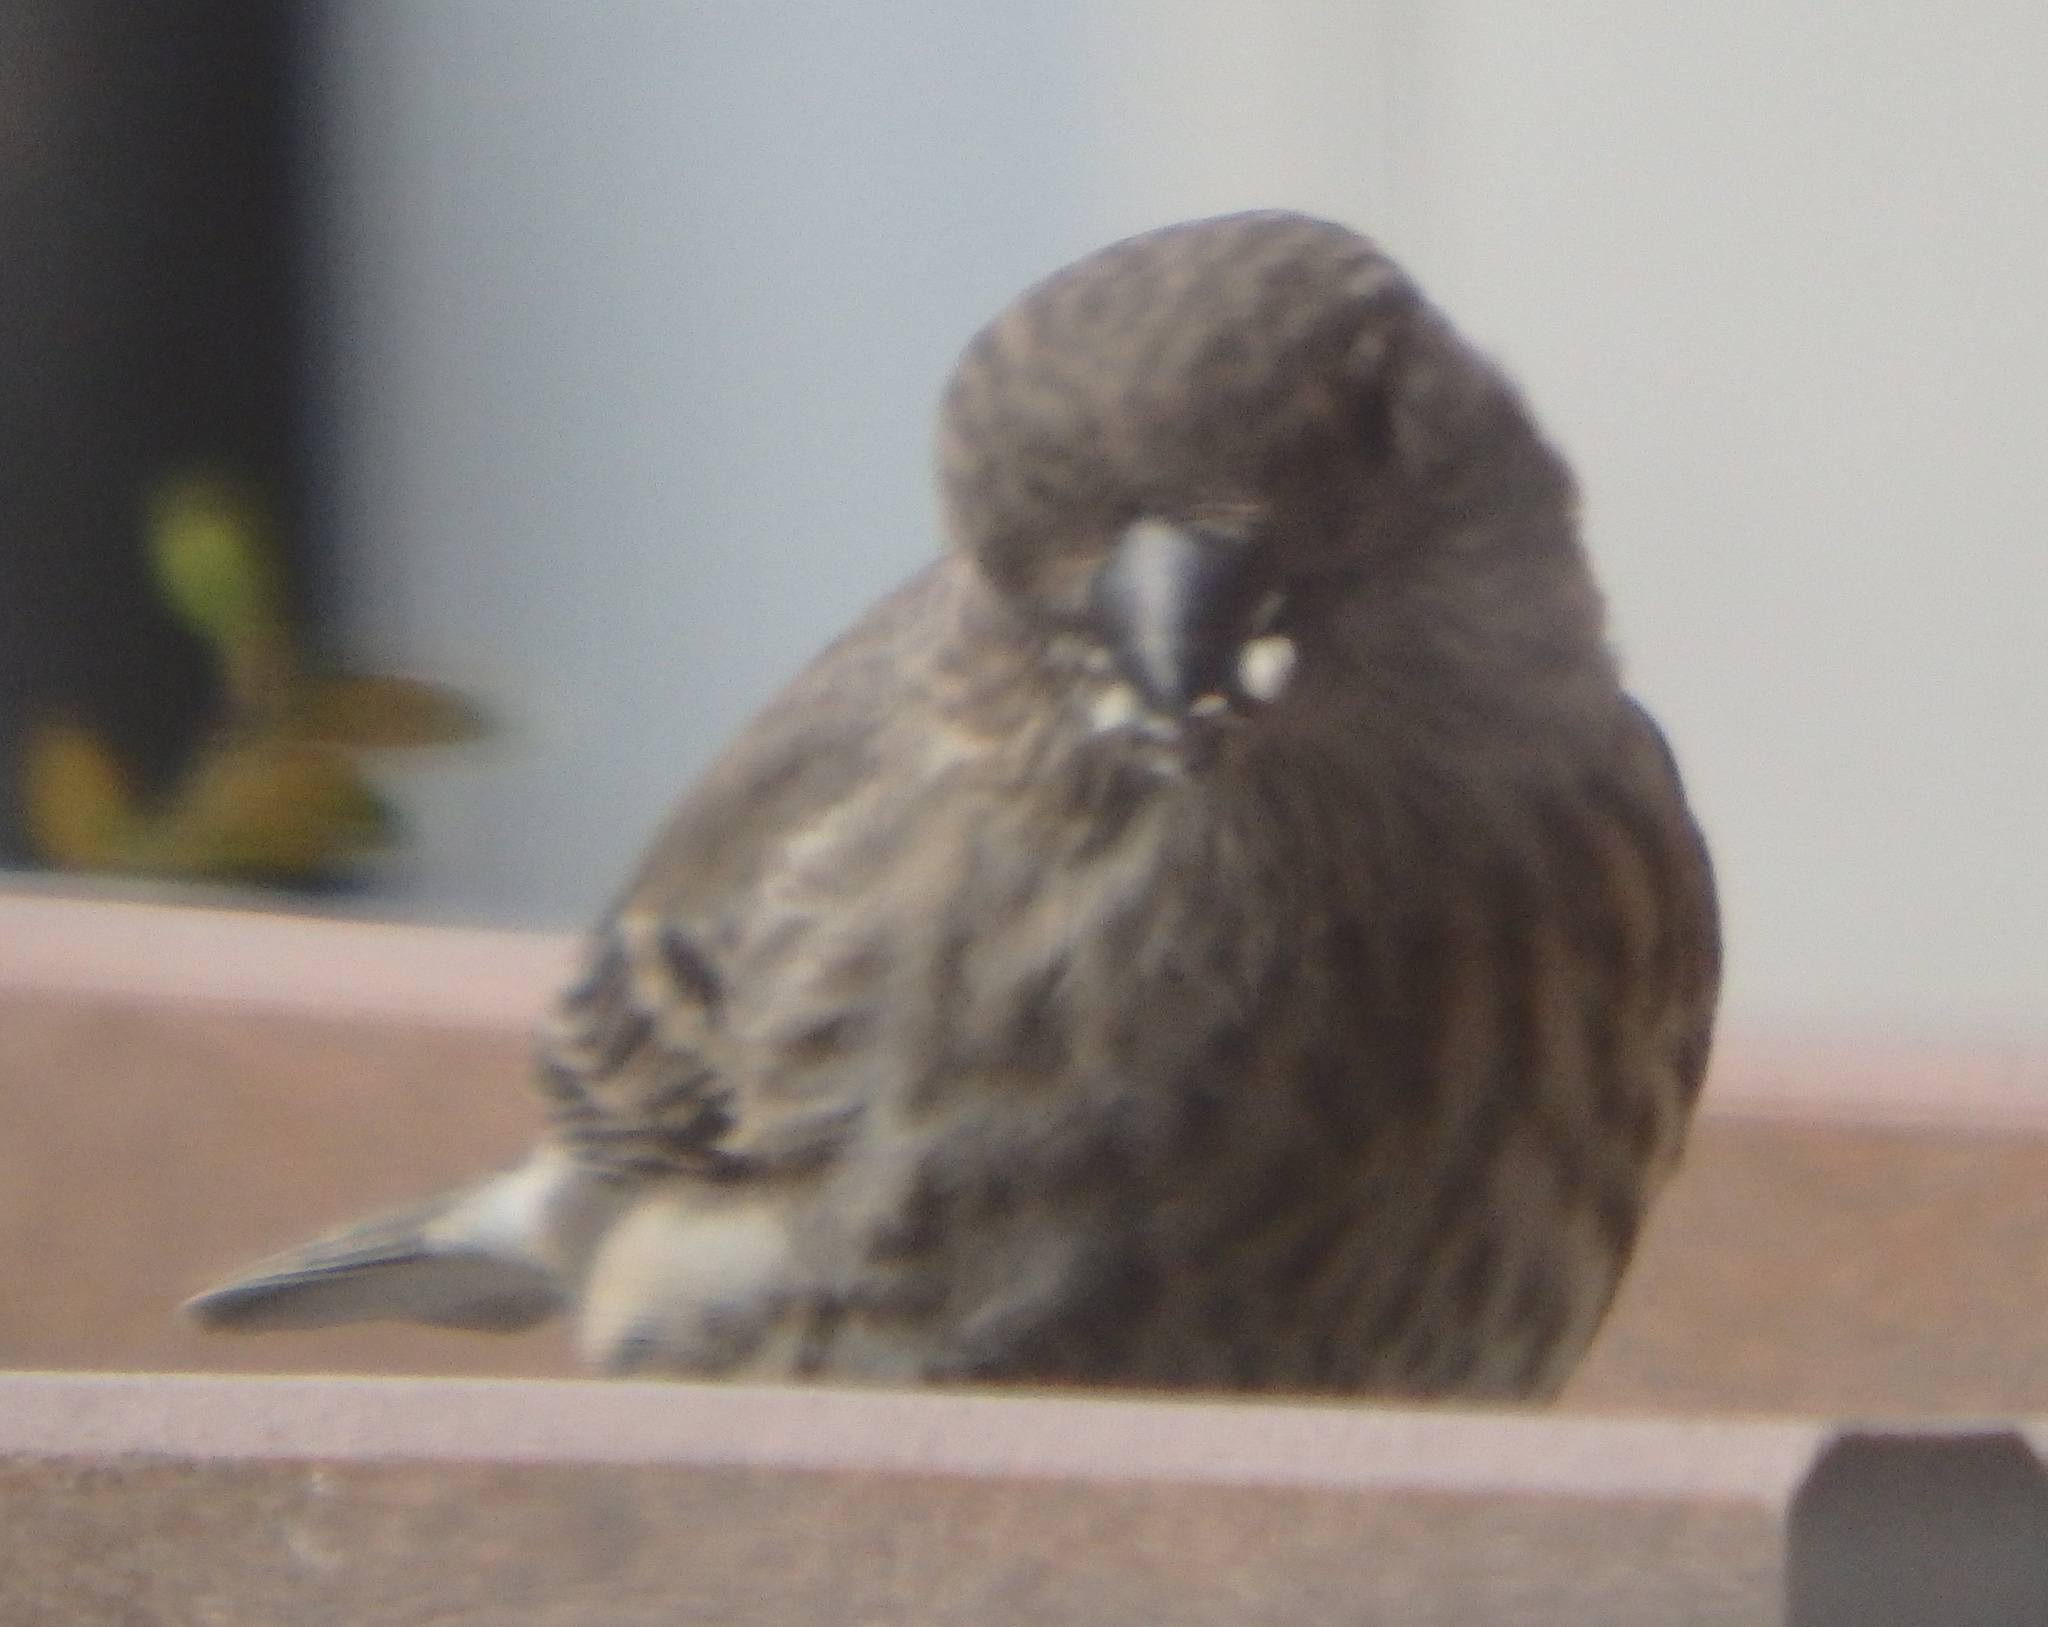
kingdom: Animalia
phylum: Chordata
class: Aves
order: Passeriformes
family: Fringillidae
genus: Haemorhous
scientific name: Haemorhous mexicanus
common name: House finch
